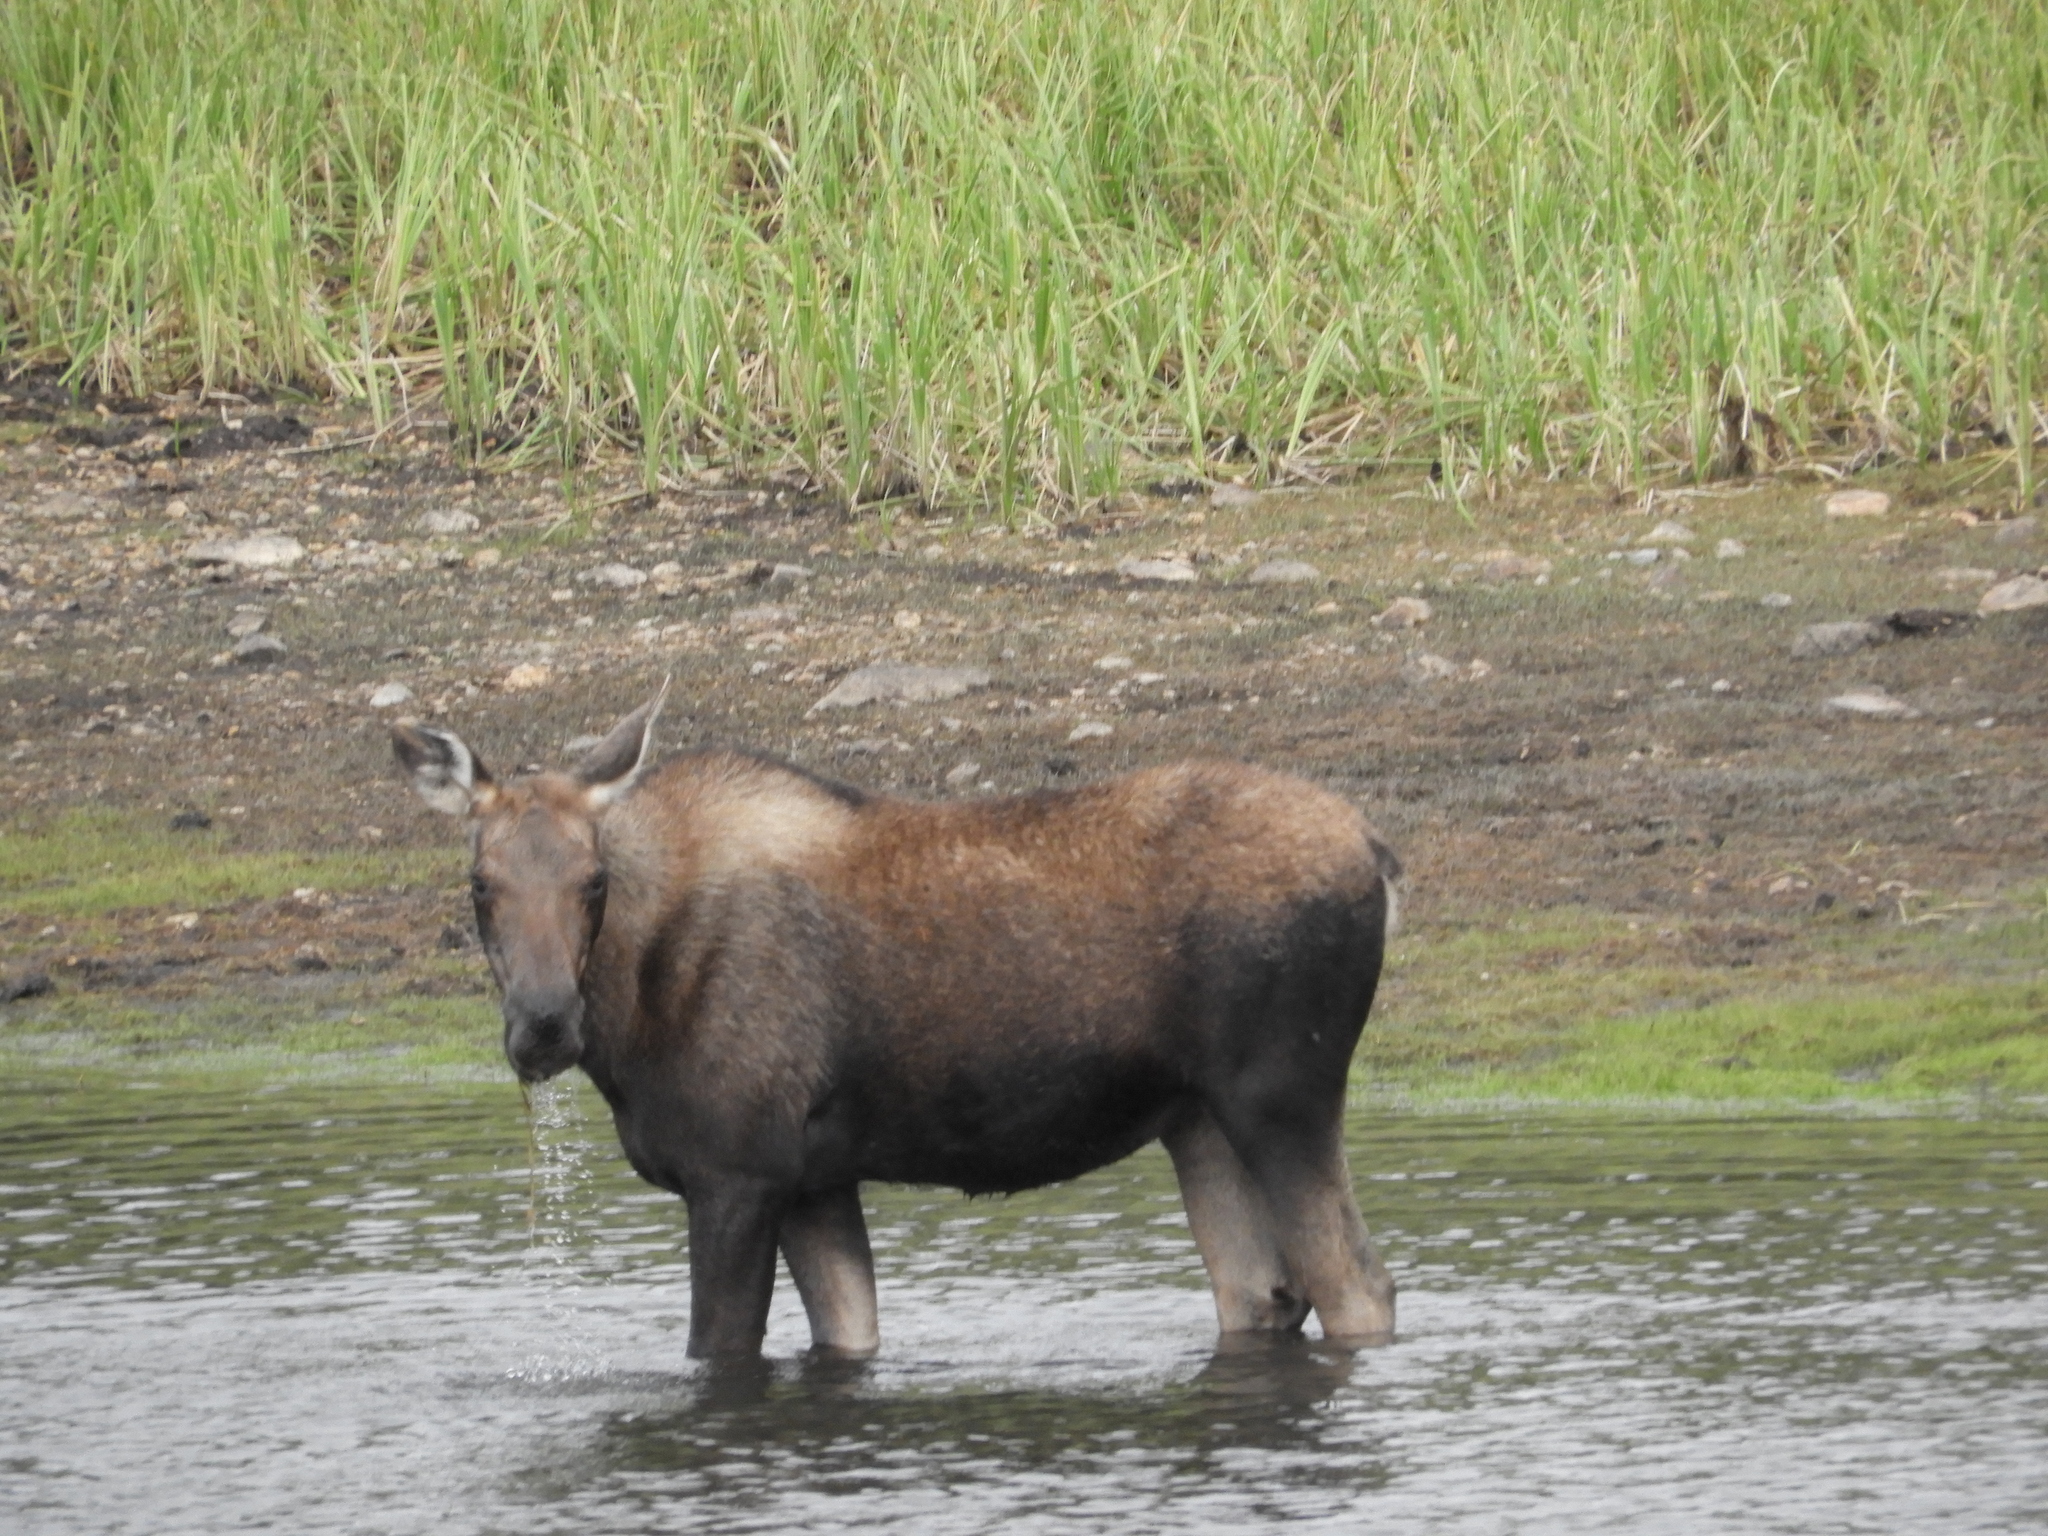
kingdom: Animalia
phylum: Chordata
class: Mammalia
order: Artiodactyla
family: Cervidae
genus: Alces
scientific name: Alces alces
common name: Moose
